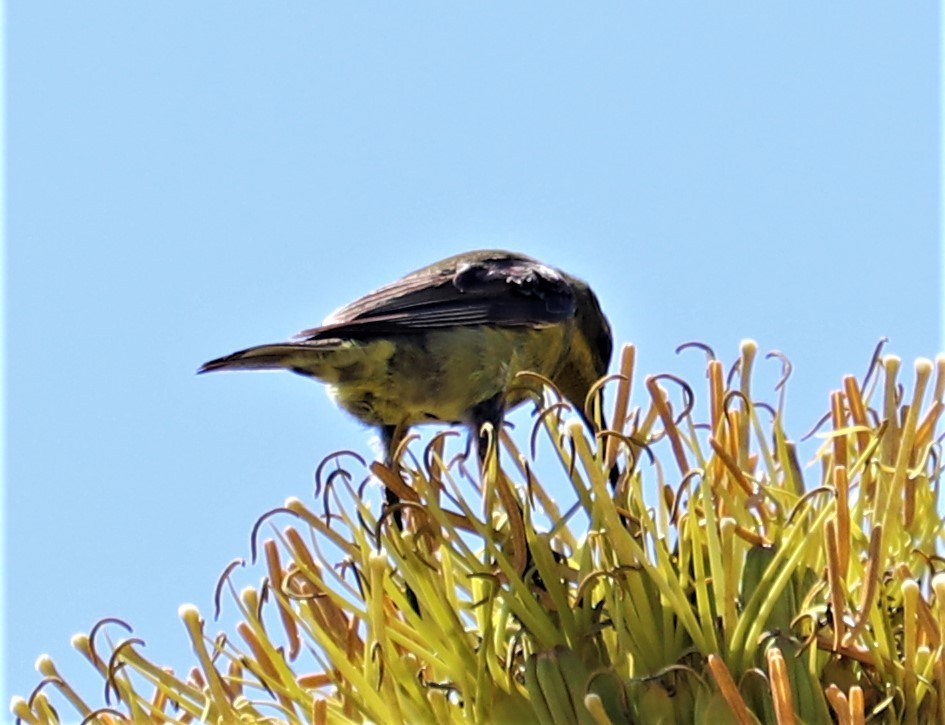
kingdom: Animalia
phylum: Chordata
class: Aves
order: Passeriformes
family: Nectariniidae
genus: Nectarinia
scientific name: Nectarinia famosa
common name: Malachite sunbird
